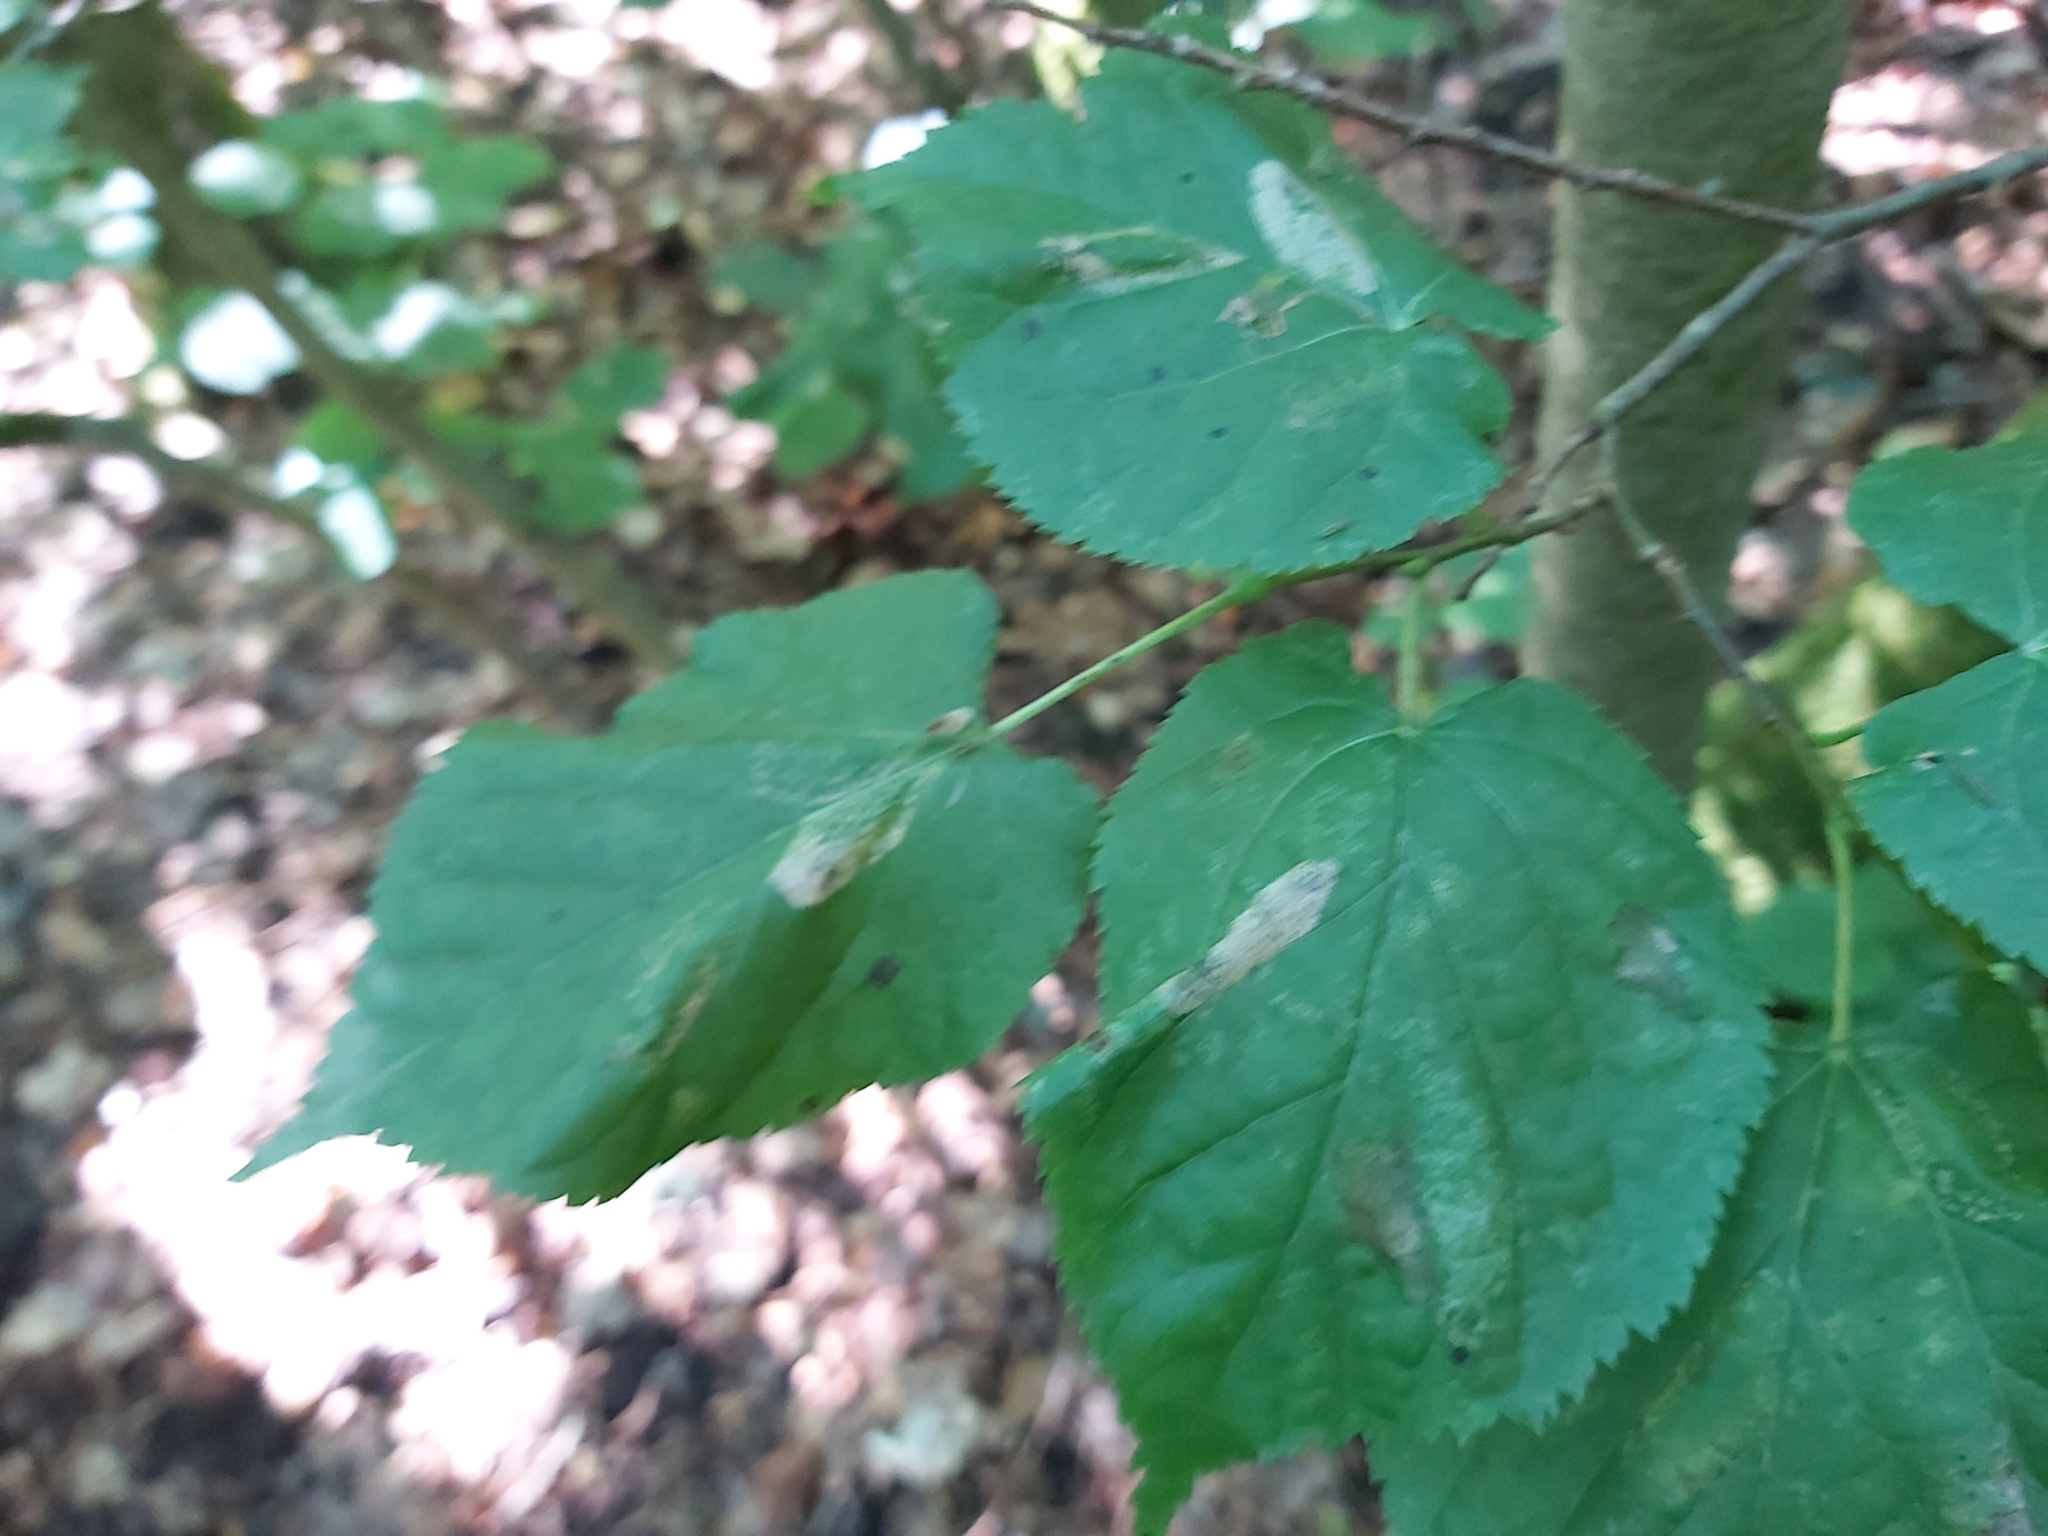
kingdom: Animalia
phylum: Arthropoda
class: Insecta
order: Lepidoptera
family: Gracillariidae
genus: Phyllonorycter
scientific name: Phyllonorycter issikii
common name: Linden midget
